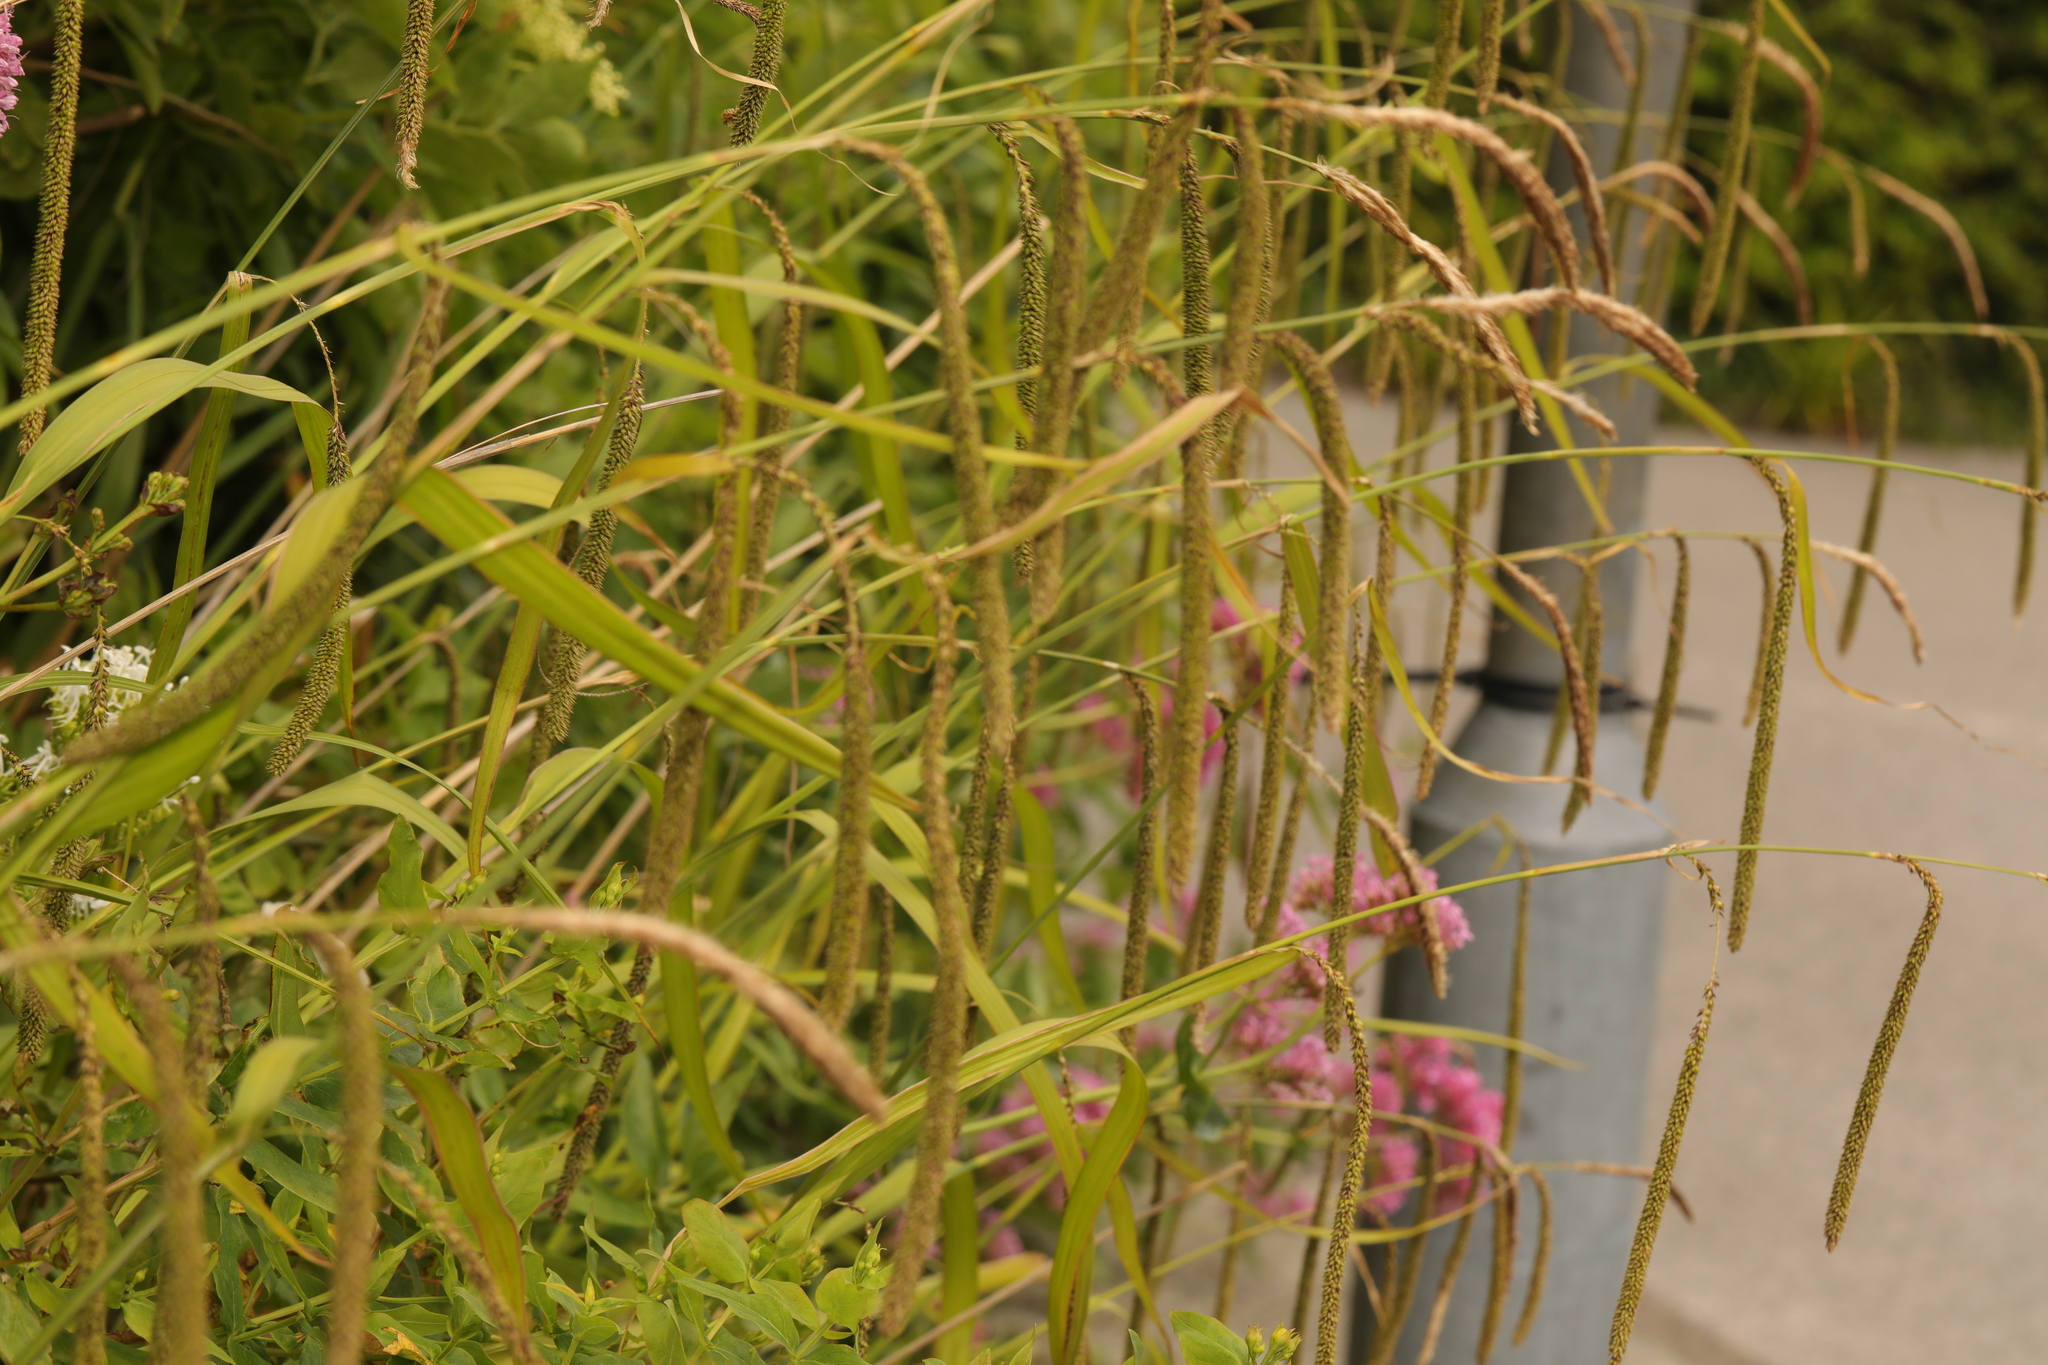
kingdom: Plantae
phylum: Tracheophyta
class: Liliopsida
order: Poales
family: Cyperaceae
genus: Carex
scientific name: Carex pendula
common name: Pendulous sedge
